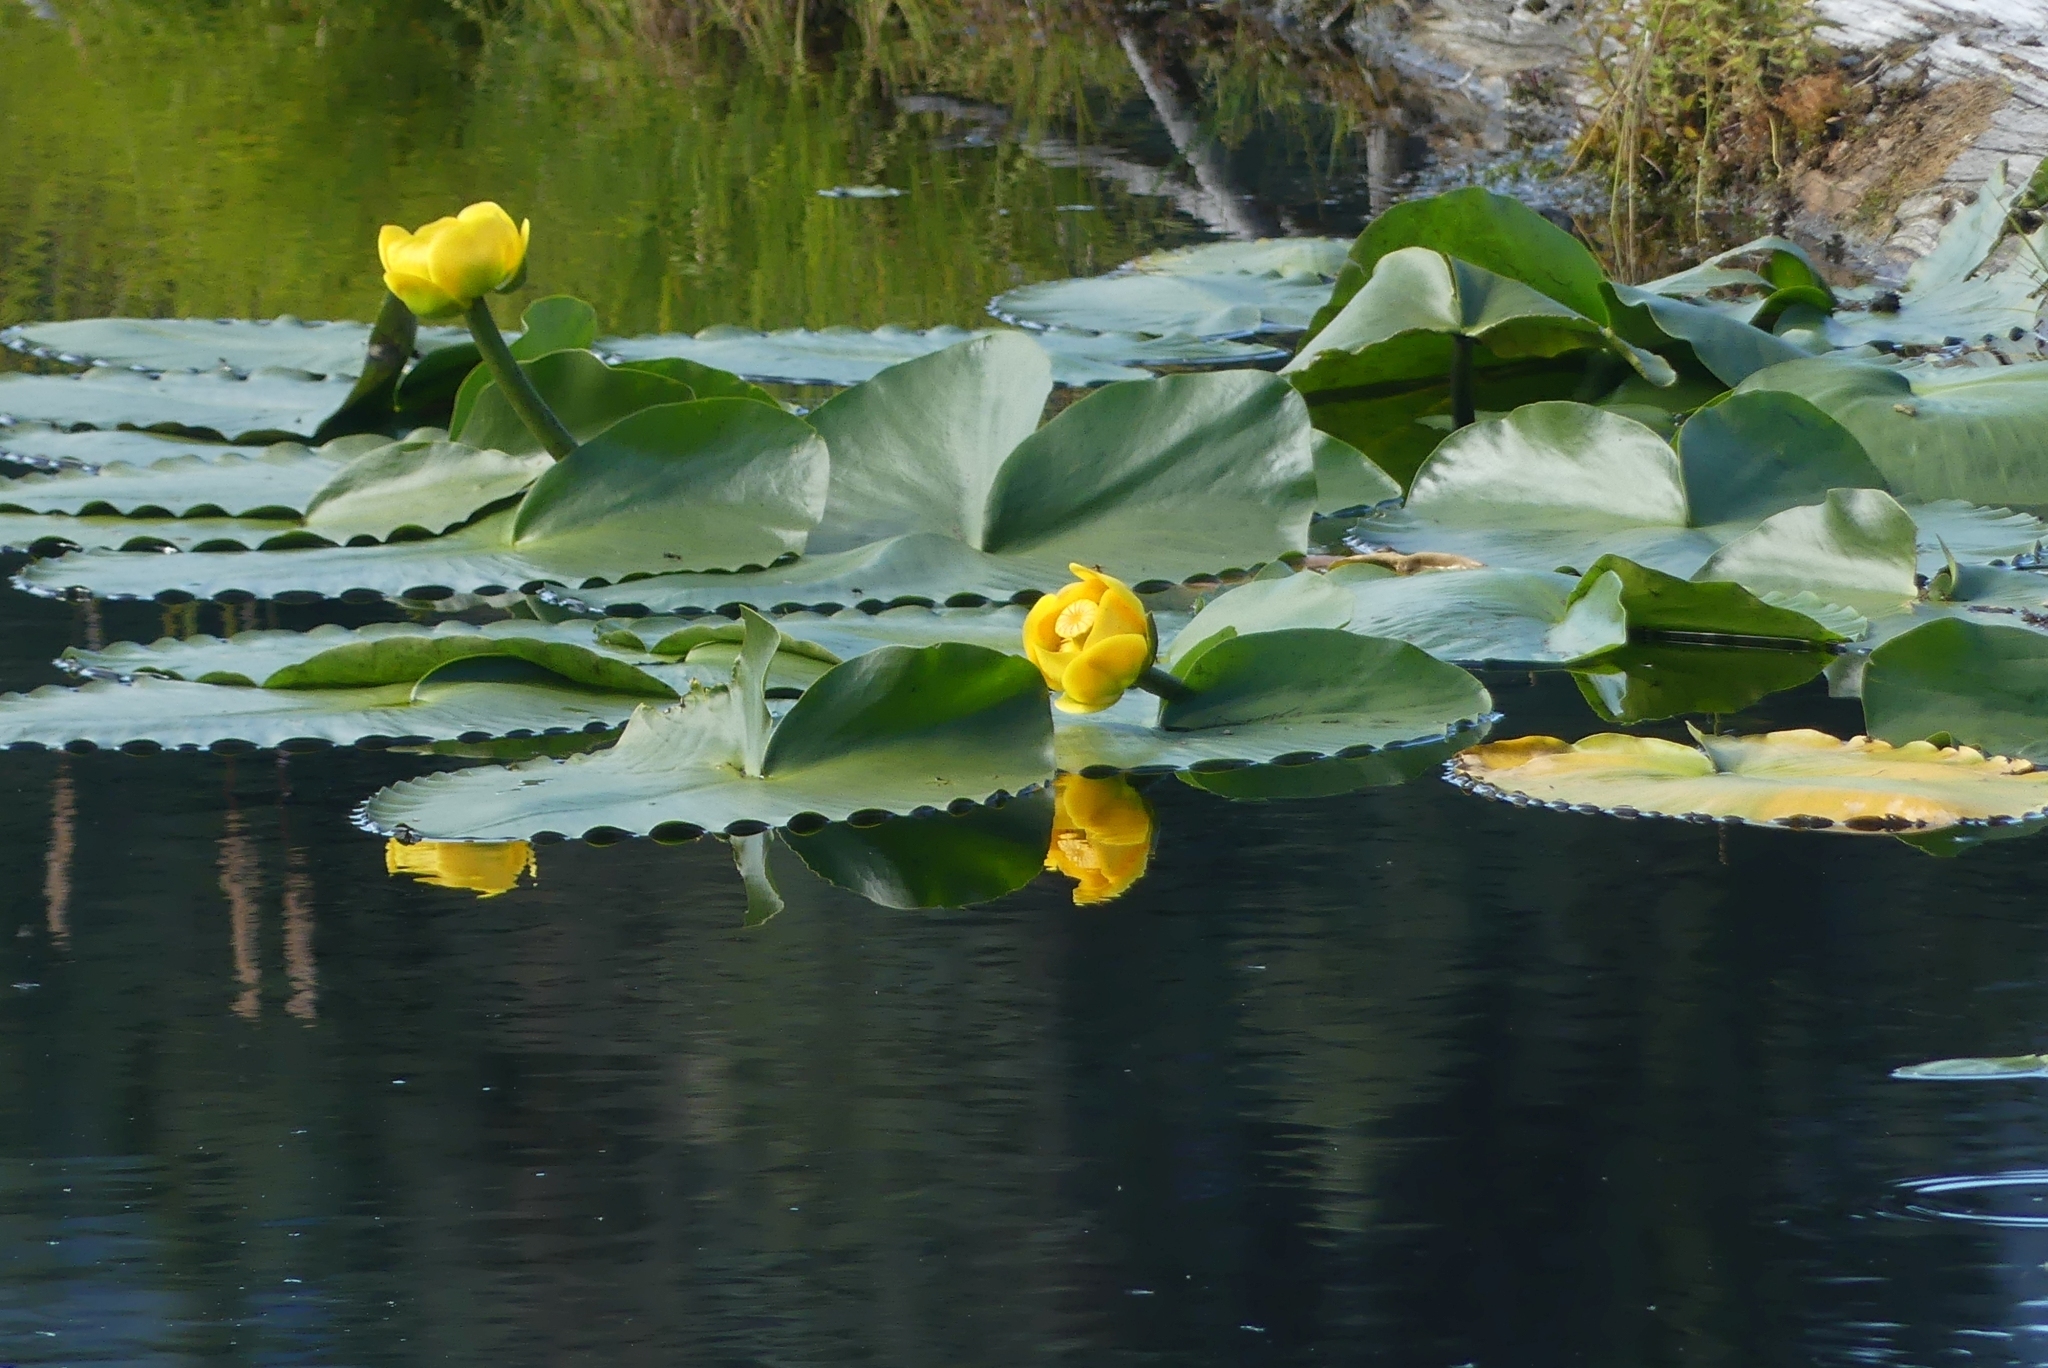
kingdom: Plantae
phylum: Tracheophyta
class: Magnoliopsida
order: Nymphaeales
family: Nymphaeaceae
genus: Nuphar
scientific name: Nuphar polysepala
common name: Rocky mountain cow-lily
